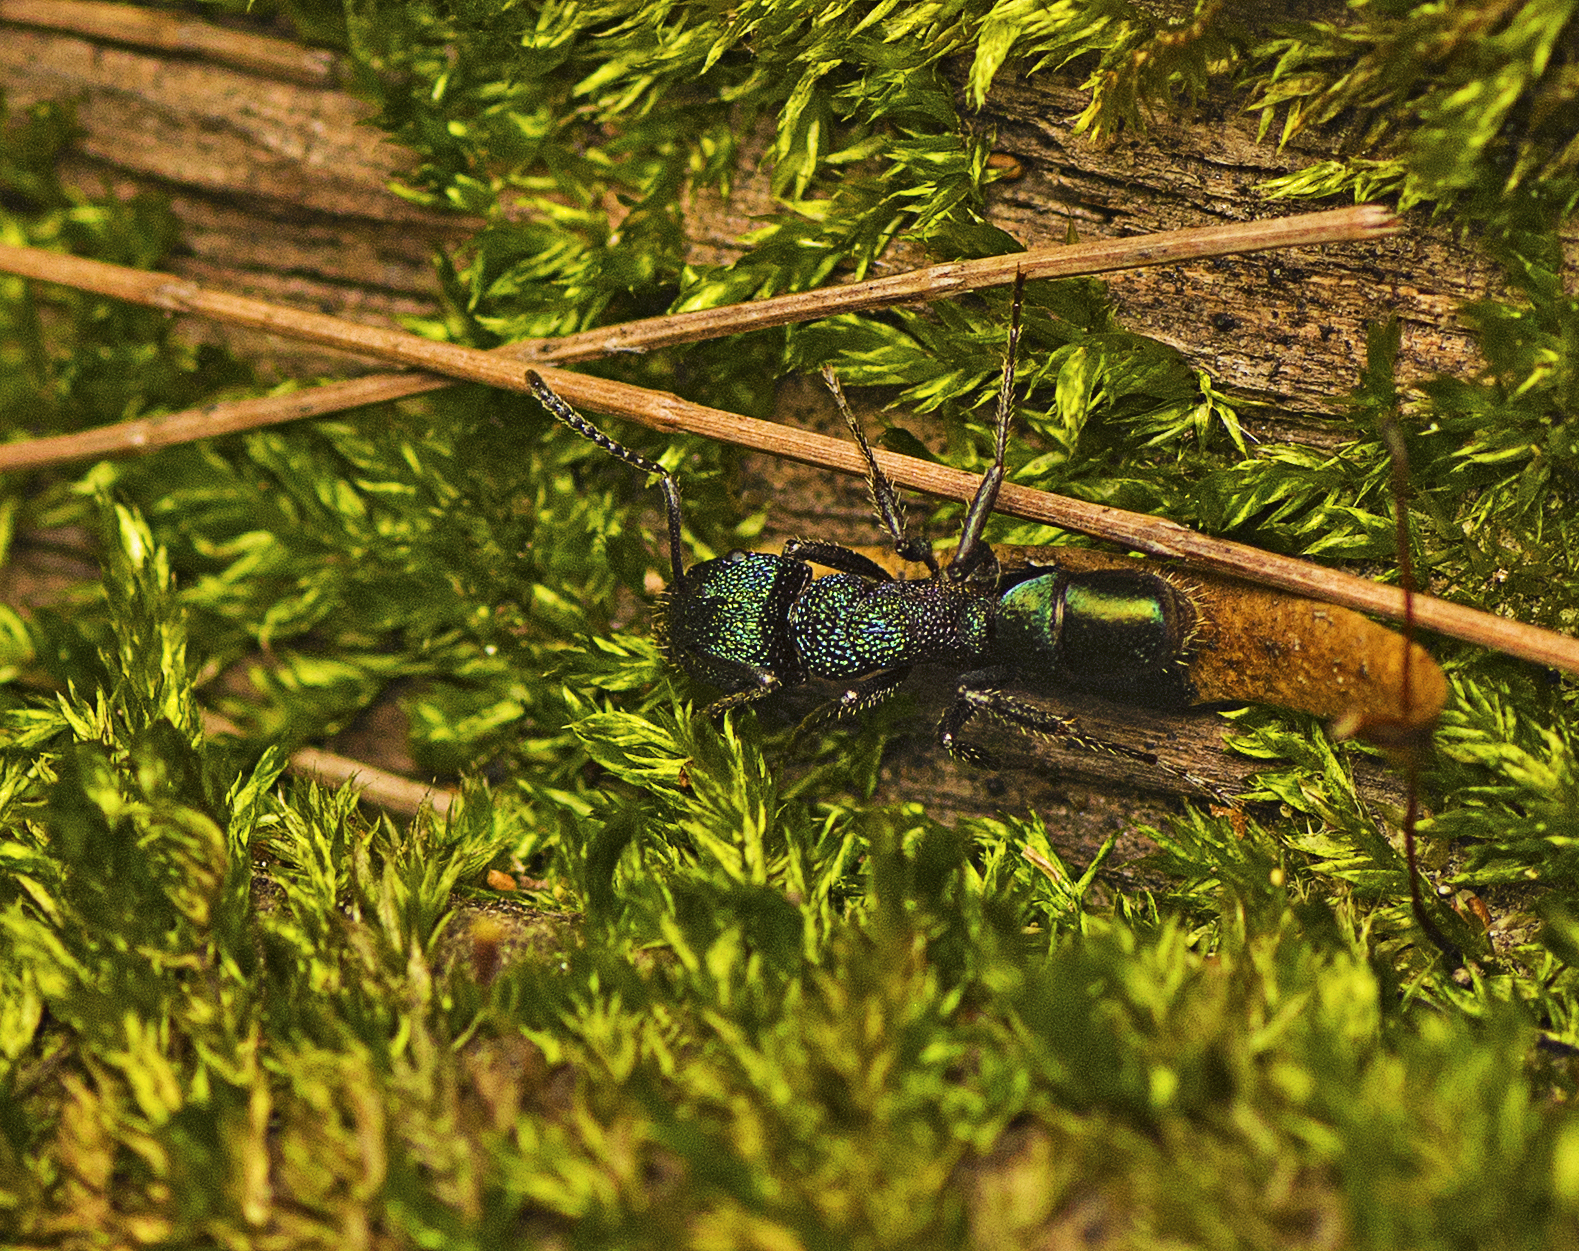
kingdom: Animalia
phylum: Arthropoda
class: Insecta
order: Hymenoptera
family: Formicidae
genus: Rhytidoponera
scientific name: Rhytidoponera metallica
